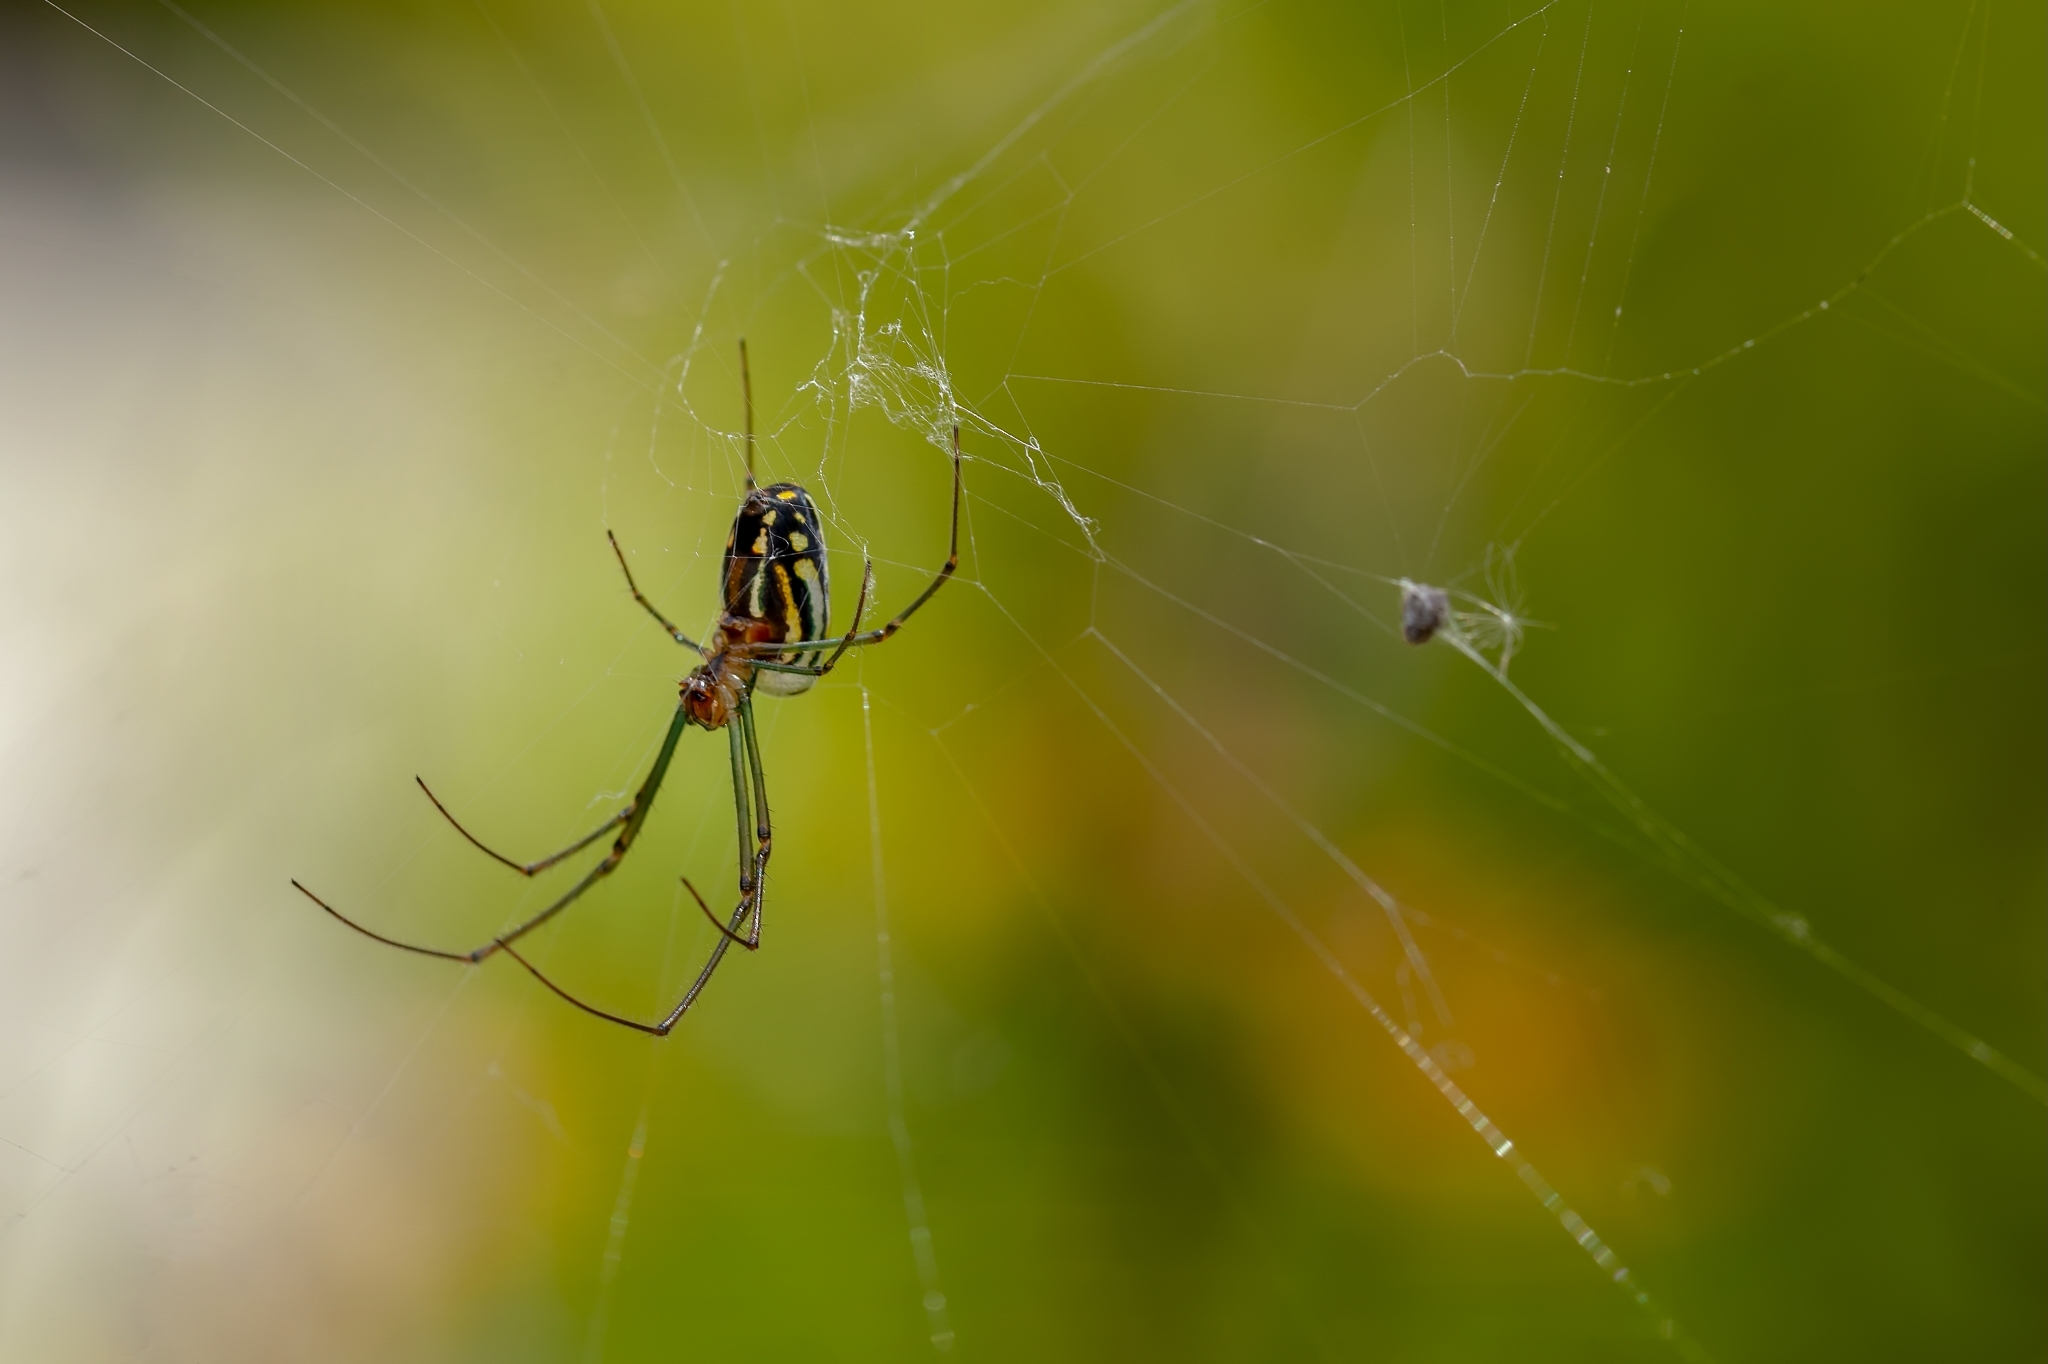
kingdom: Animalia
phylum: Arthropoda
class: Arachnida
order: Araneae
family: Tetragnathidae
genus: Leucauge
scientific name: Leucauge argyra
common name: Longjawed orb weavers
